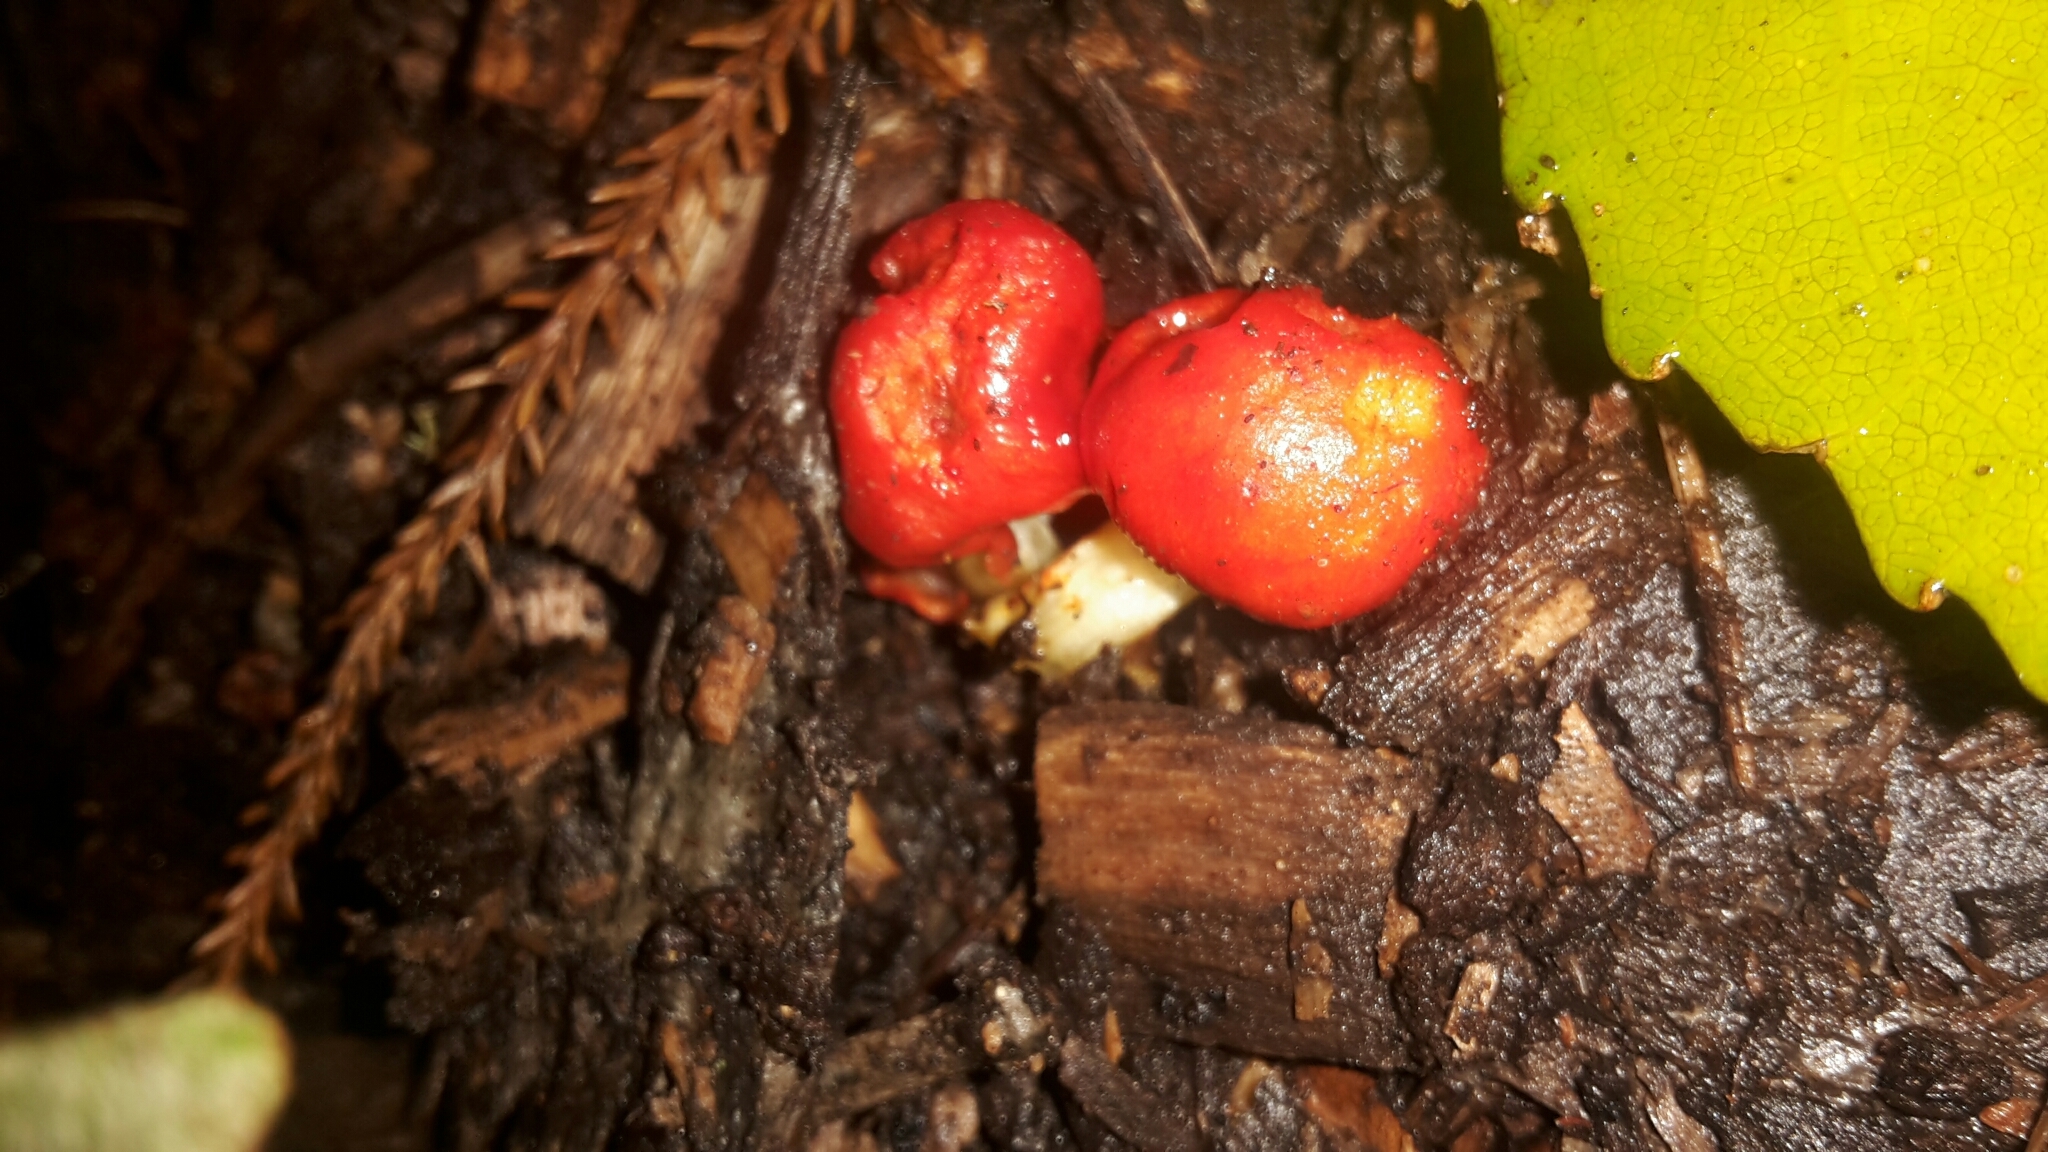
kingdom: Fungi
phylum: Basidiomycota
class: Agaricomycetes
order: Agaricales
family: Strophariaceae
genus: Leratiomyces
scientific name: Leratiomyces erythrocephalus
